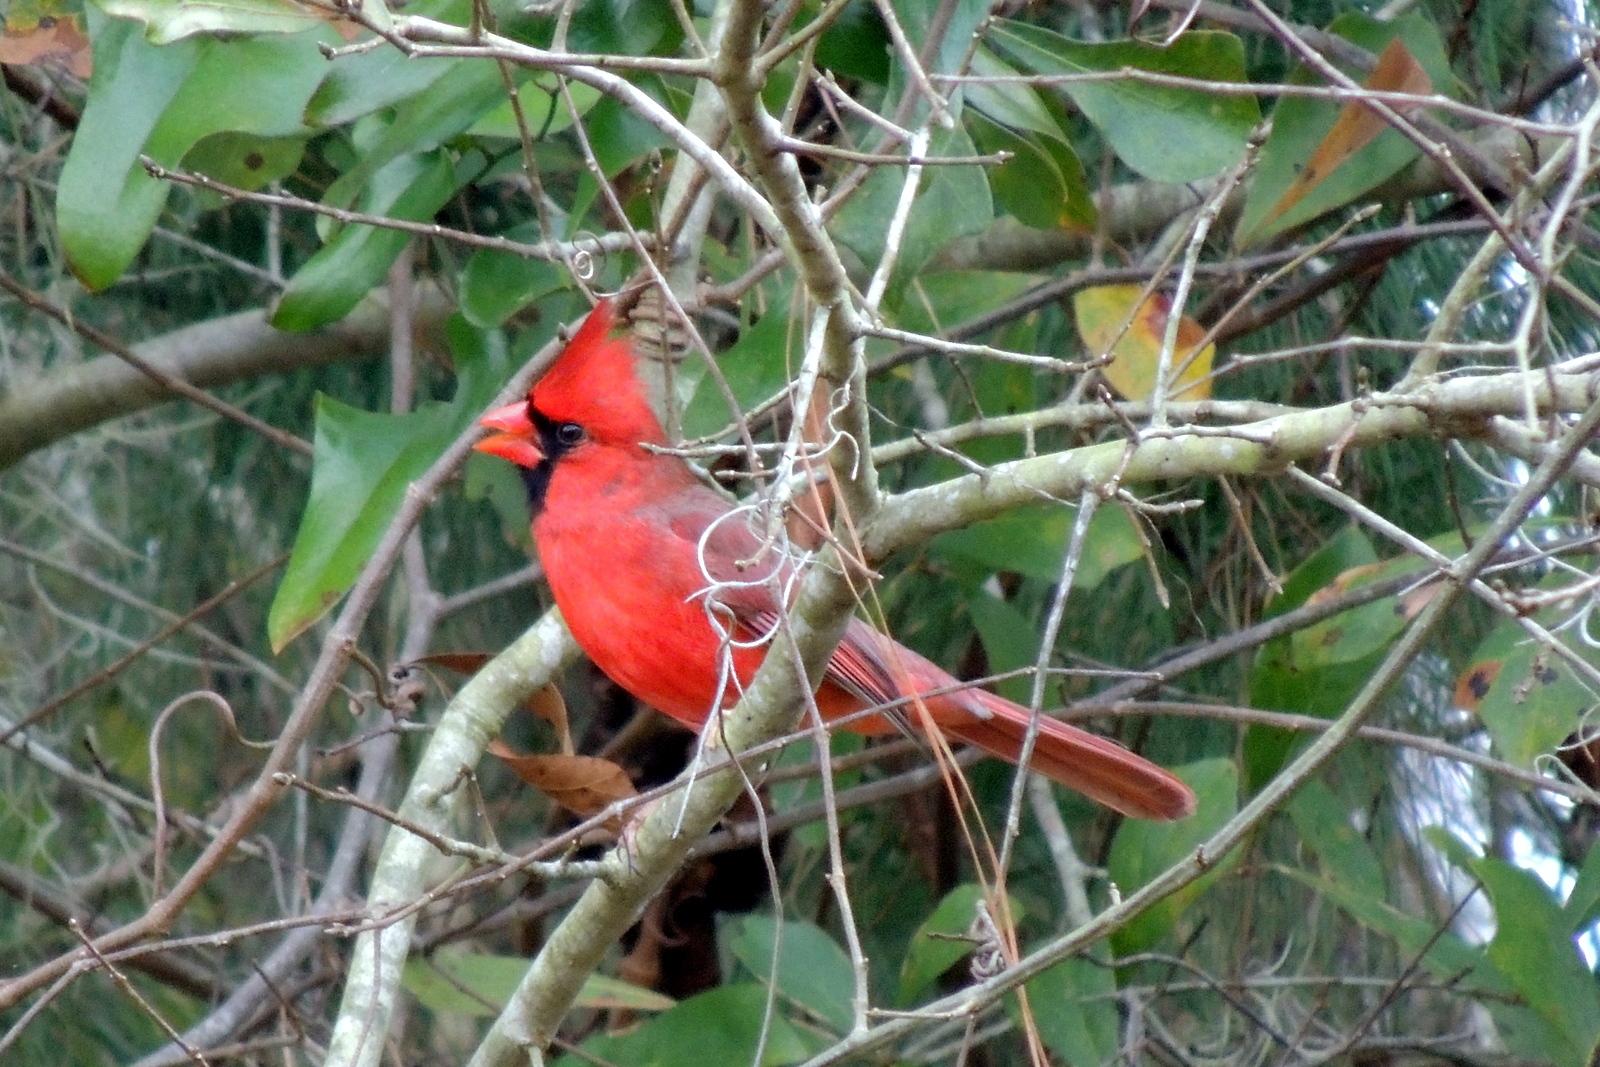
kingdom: Animalia
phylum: Chordata
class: Aves
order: Passeriformes
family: Cardinalidae
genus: Cardinalis
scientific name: Cardinalis cardinalis
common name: Northern cardinal
